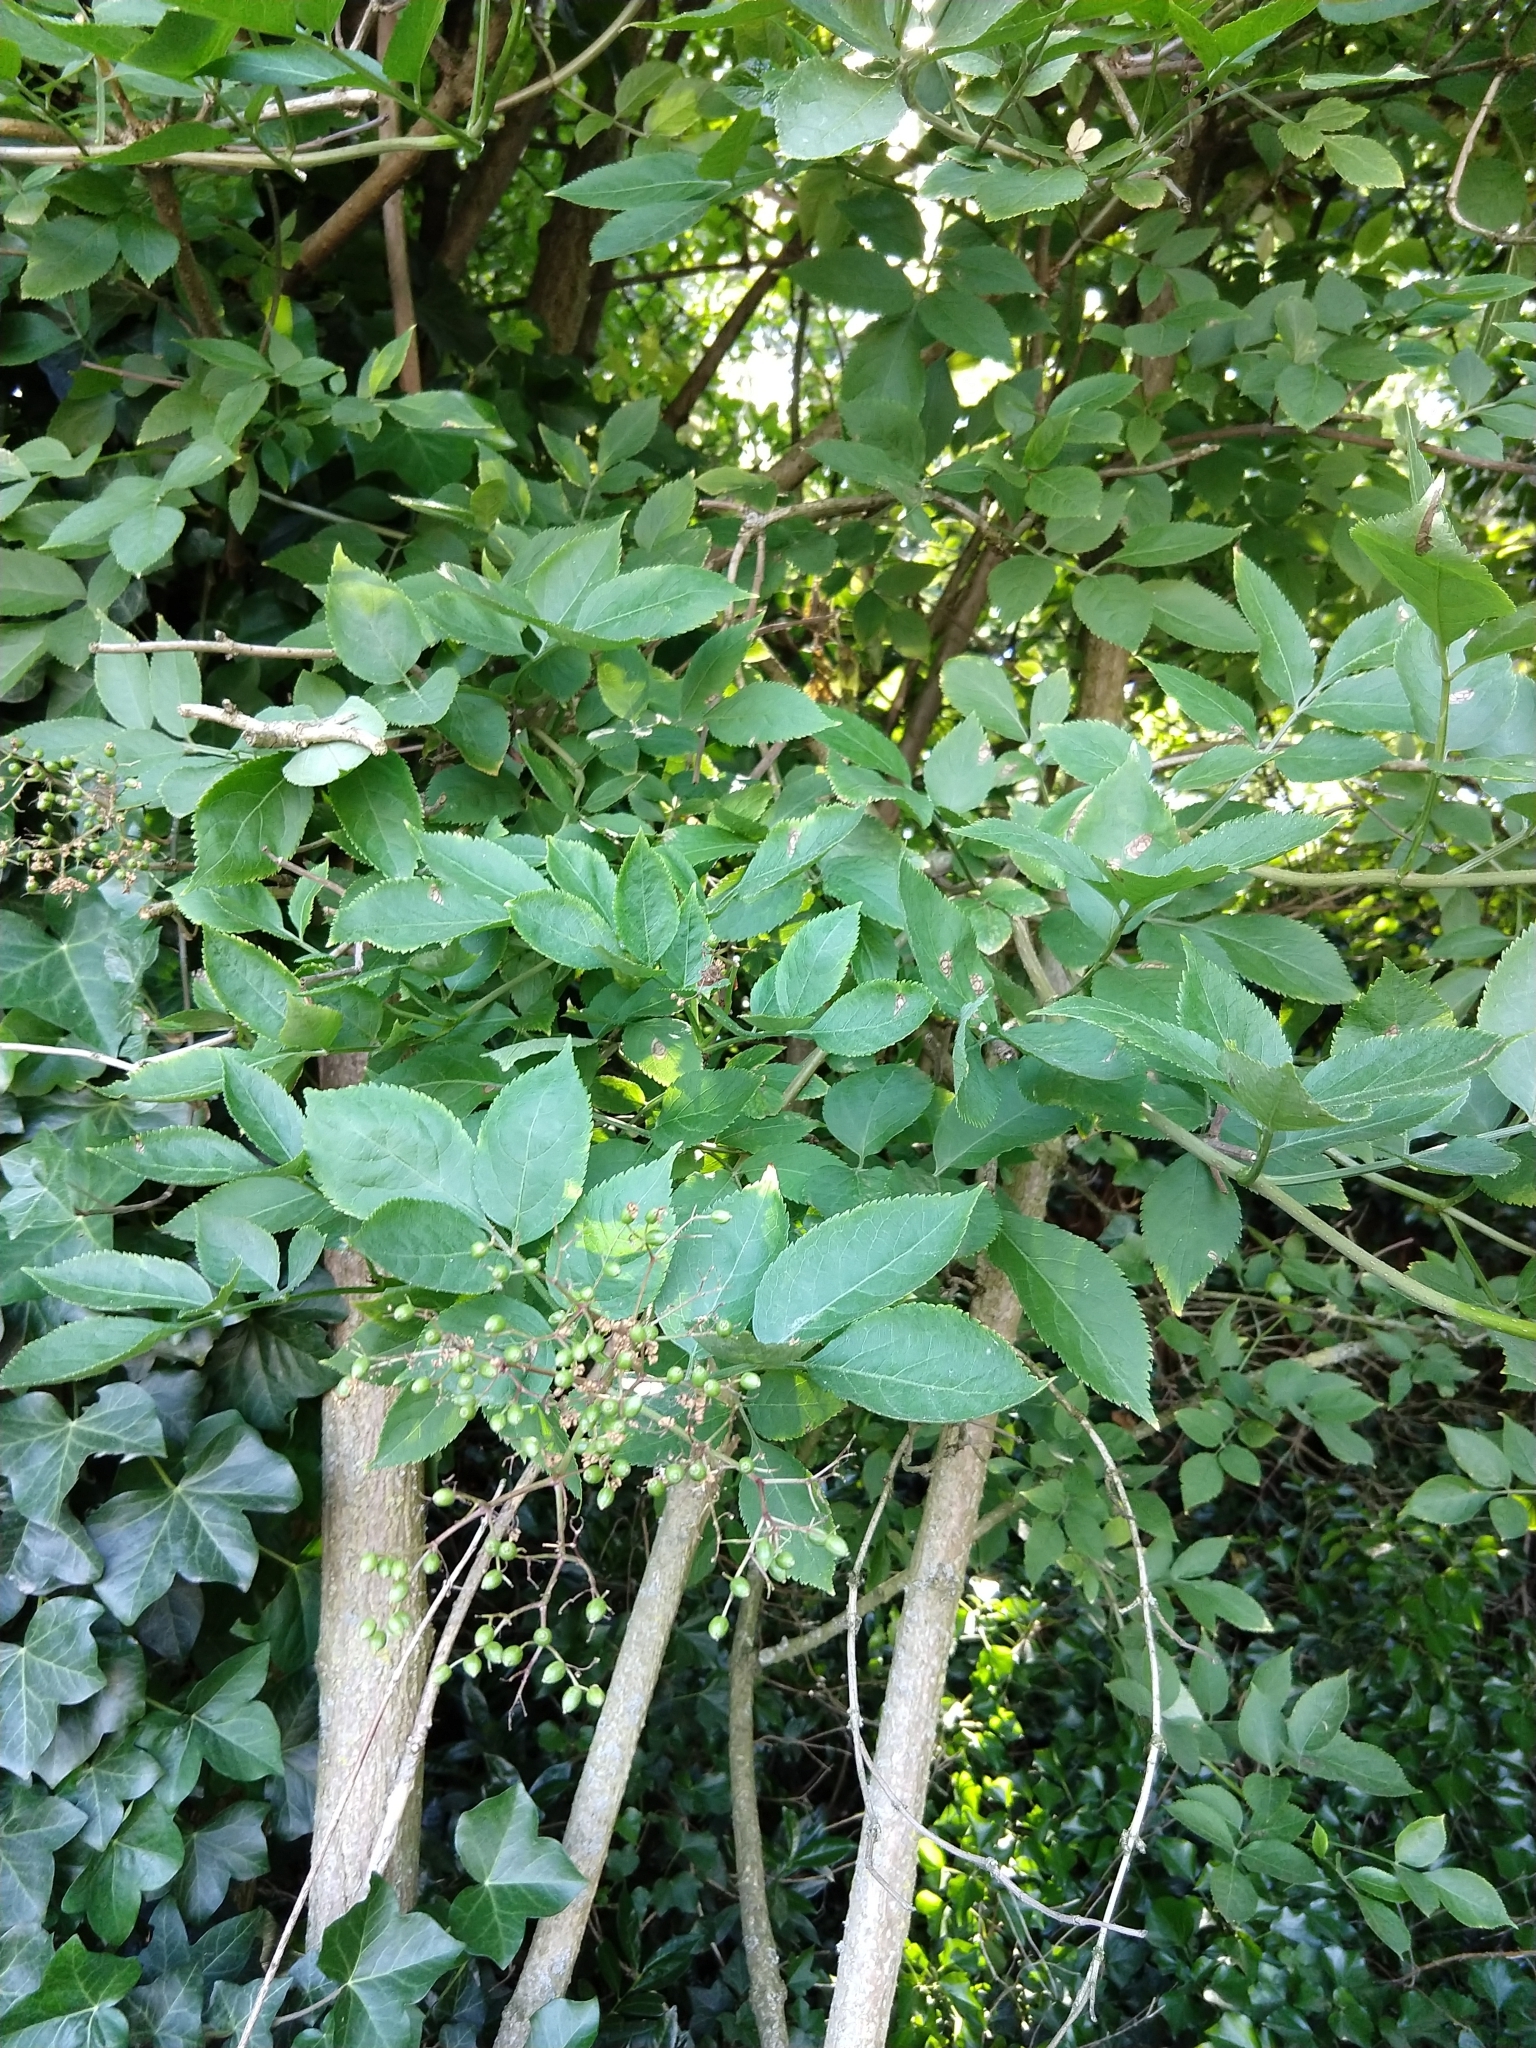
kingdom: Plantae
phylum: Tracheophyta
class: Magnoliopsida
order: Dipsacales
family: Viburnaceae
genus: Sambucus
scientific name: Sambucus nigra
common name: Elder
